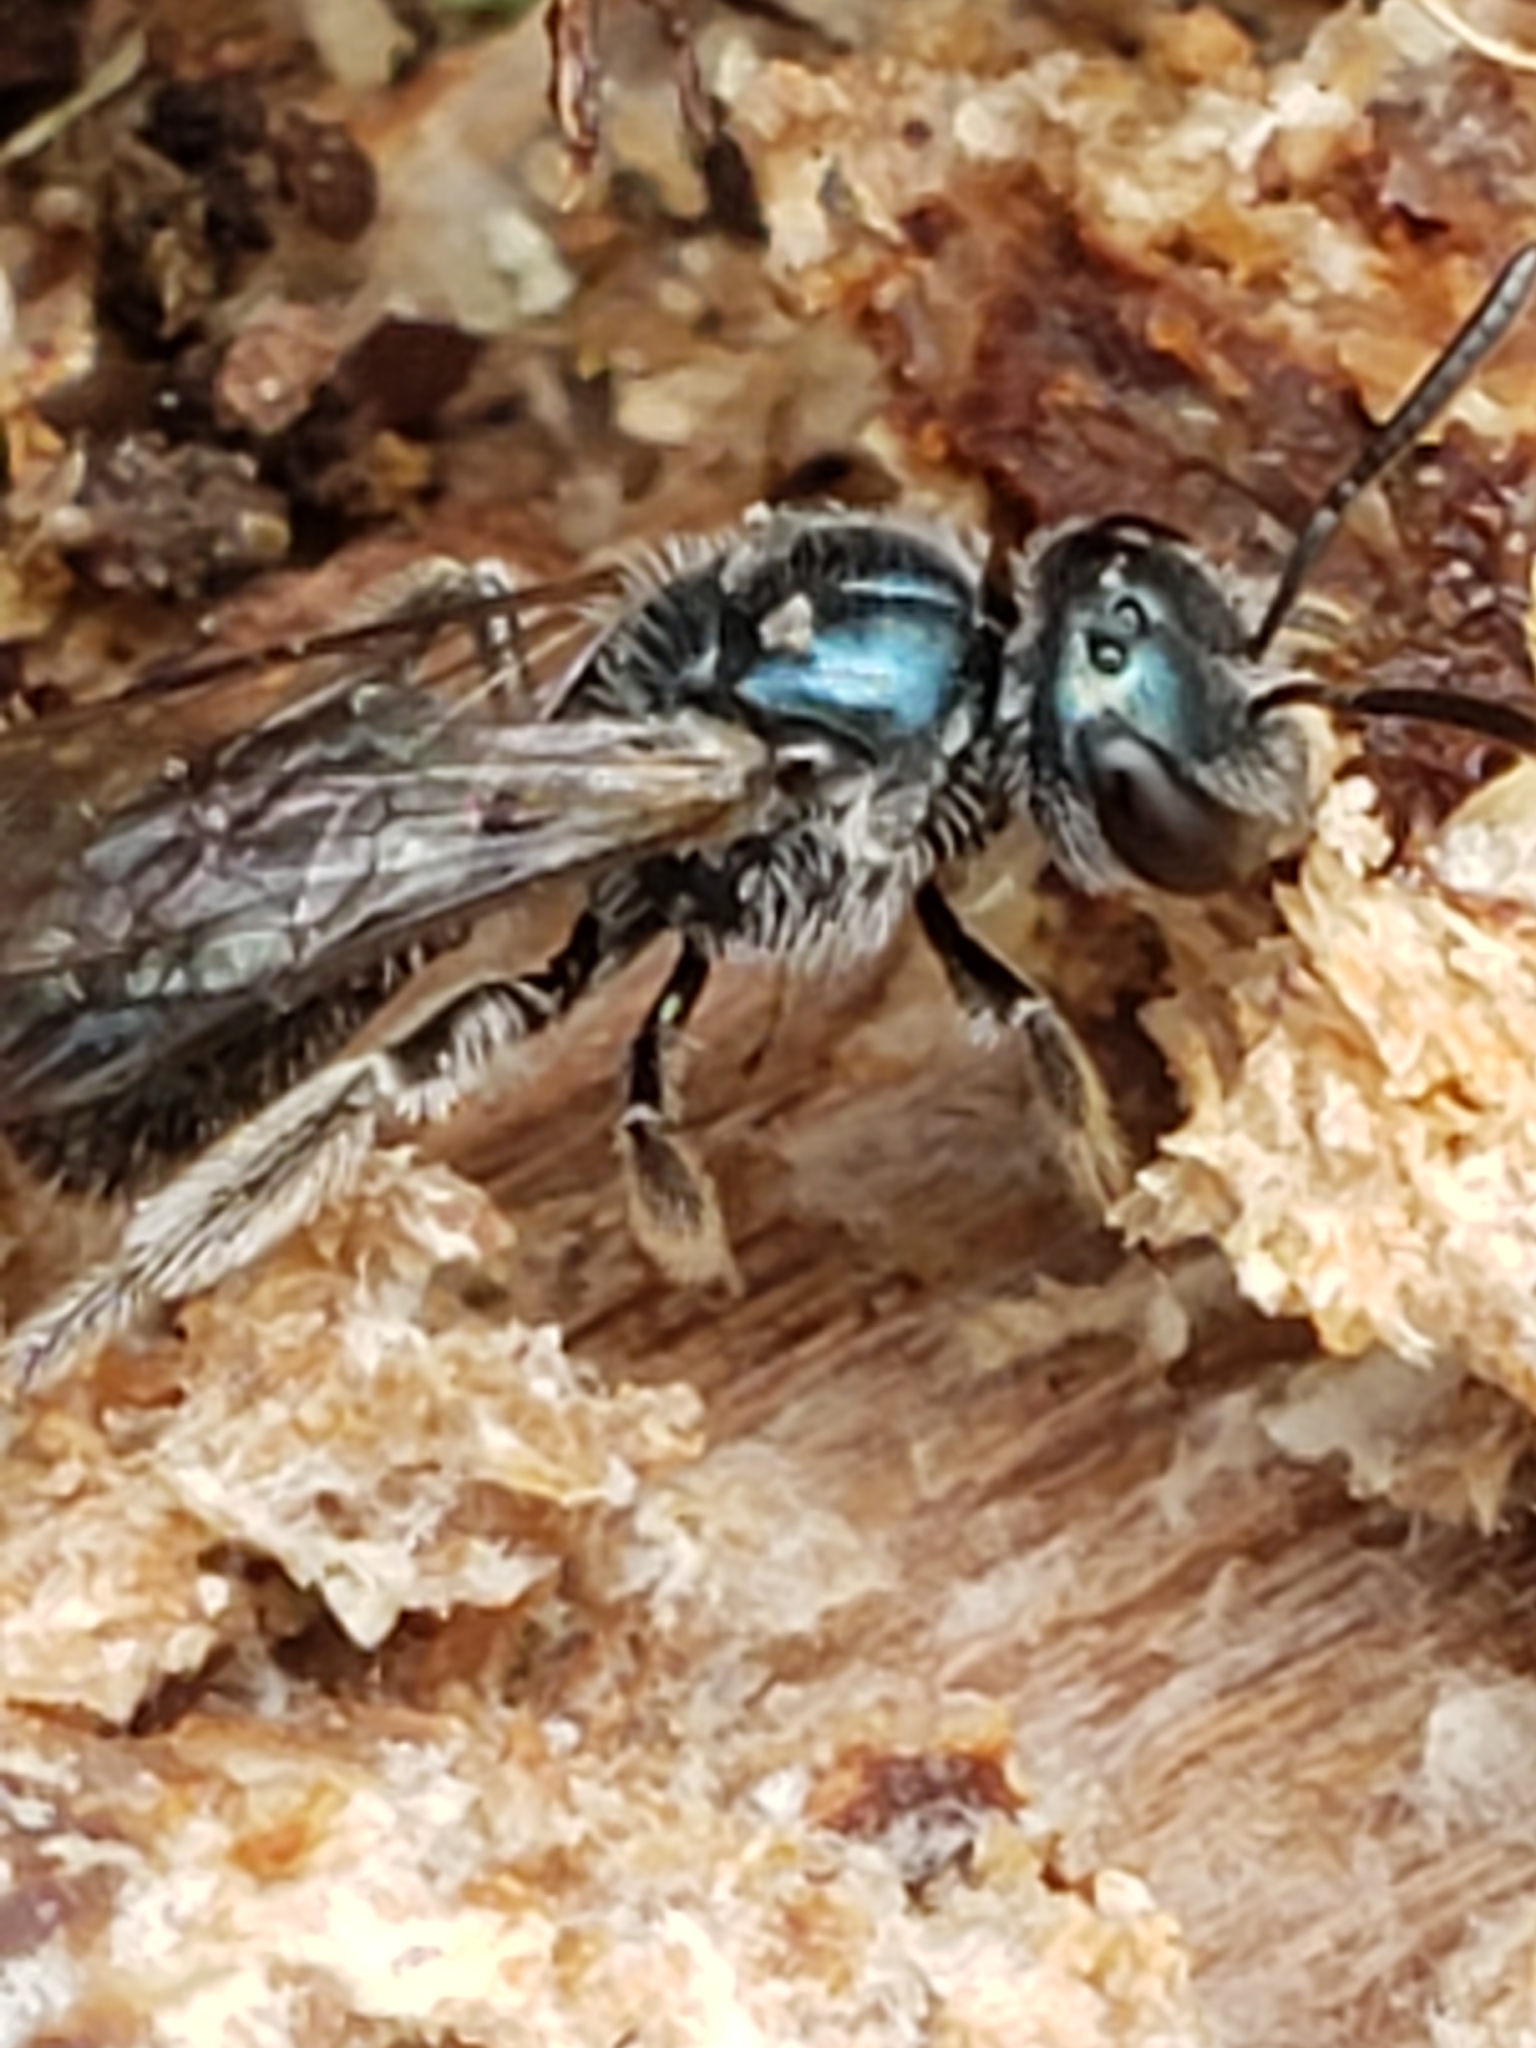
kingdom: Animalia
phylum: Arthropoda
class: Insecta
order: Hymenoptera
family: Halictidae
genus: Lasioglossum
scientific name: Lasioglossum coeruleum
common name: Deep-blue sweat bee
